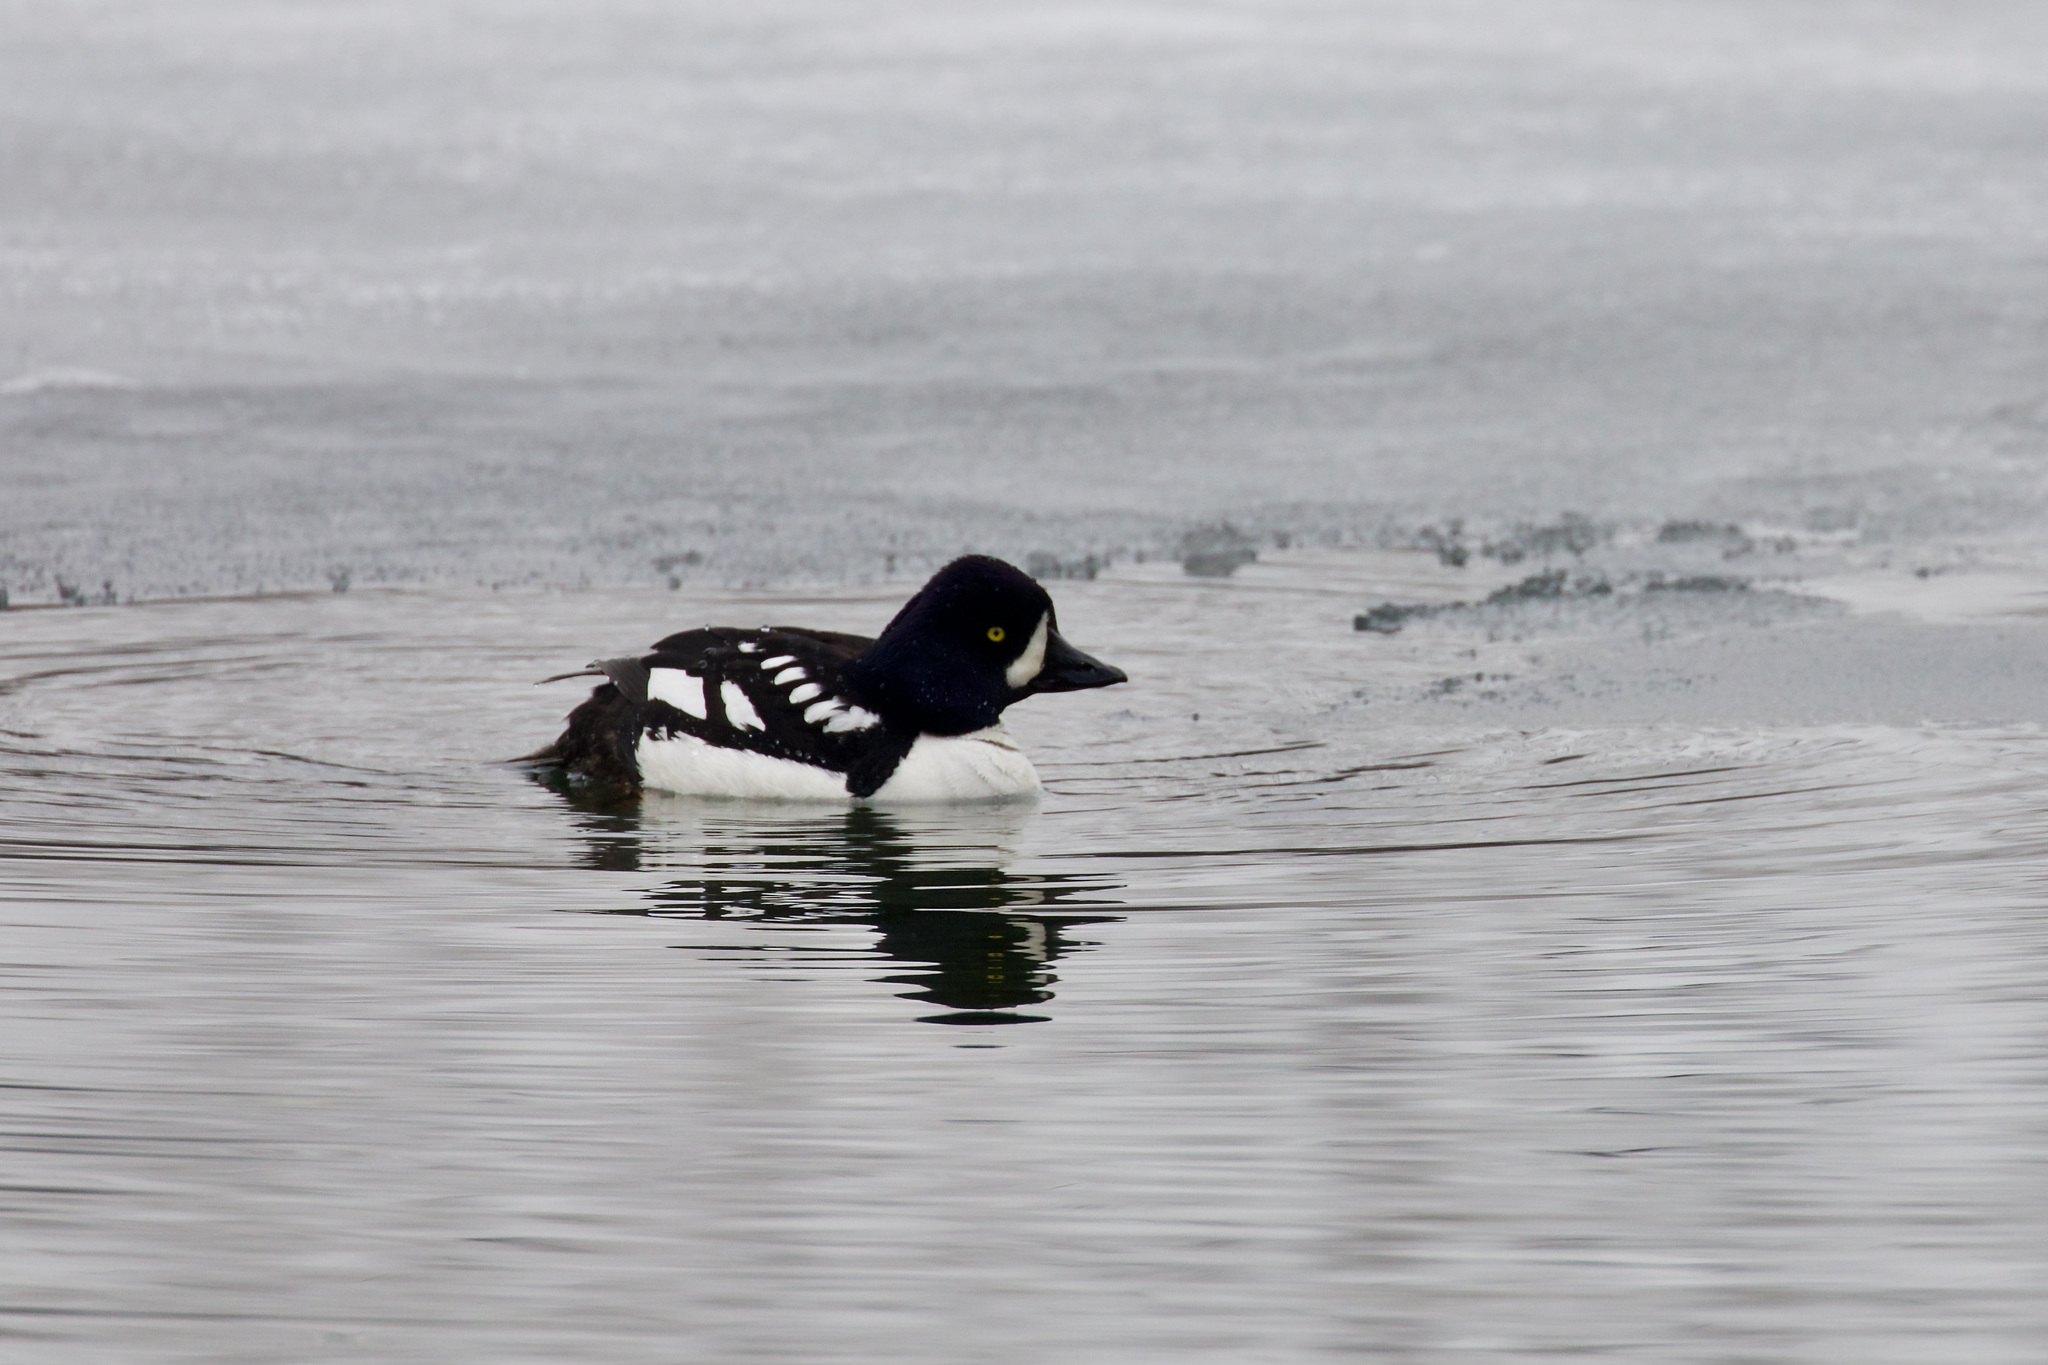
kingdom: Animalia
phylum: Chordata
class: Aves
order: Anseriformes
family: Anatidae
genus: Bucephala
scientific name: Bucephala islandica
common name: Barrow's goldeneye
